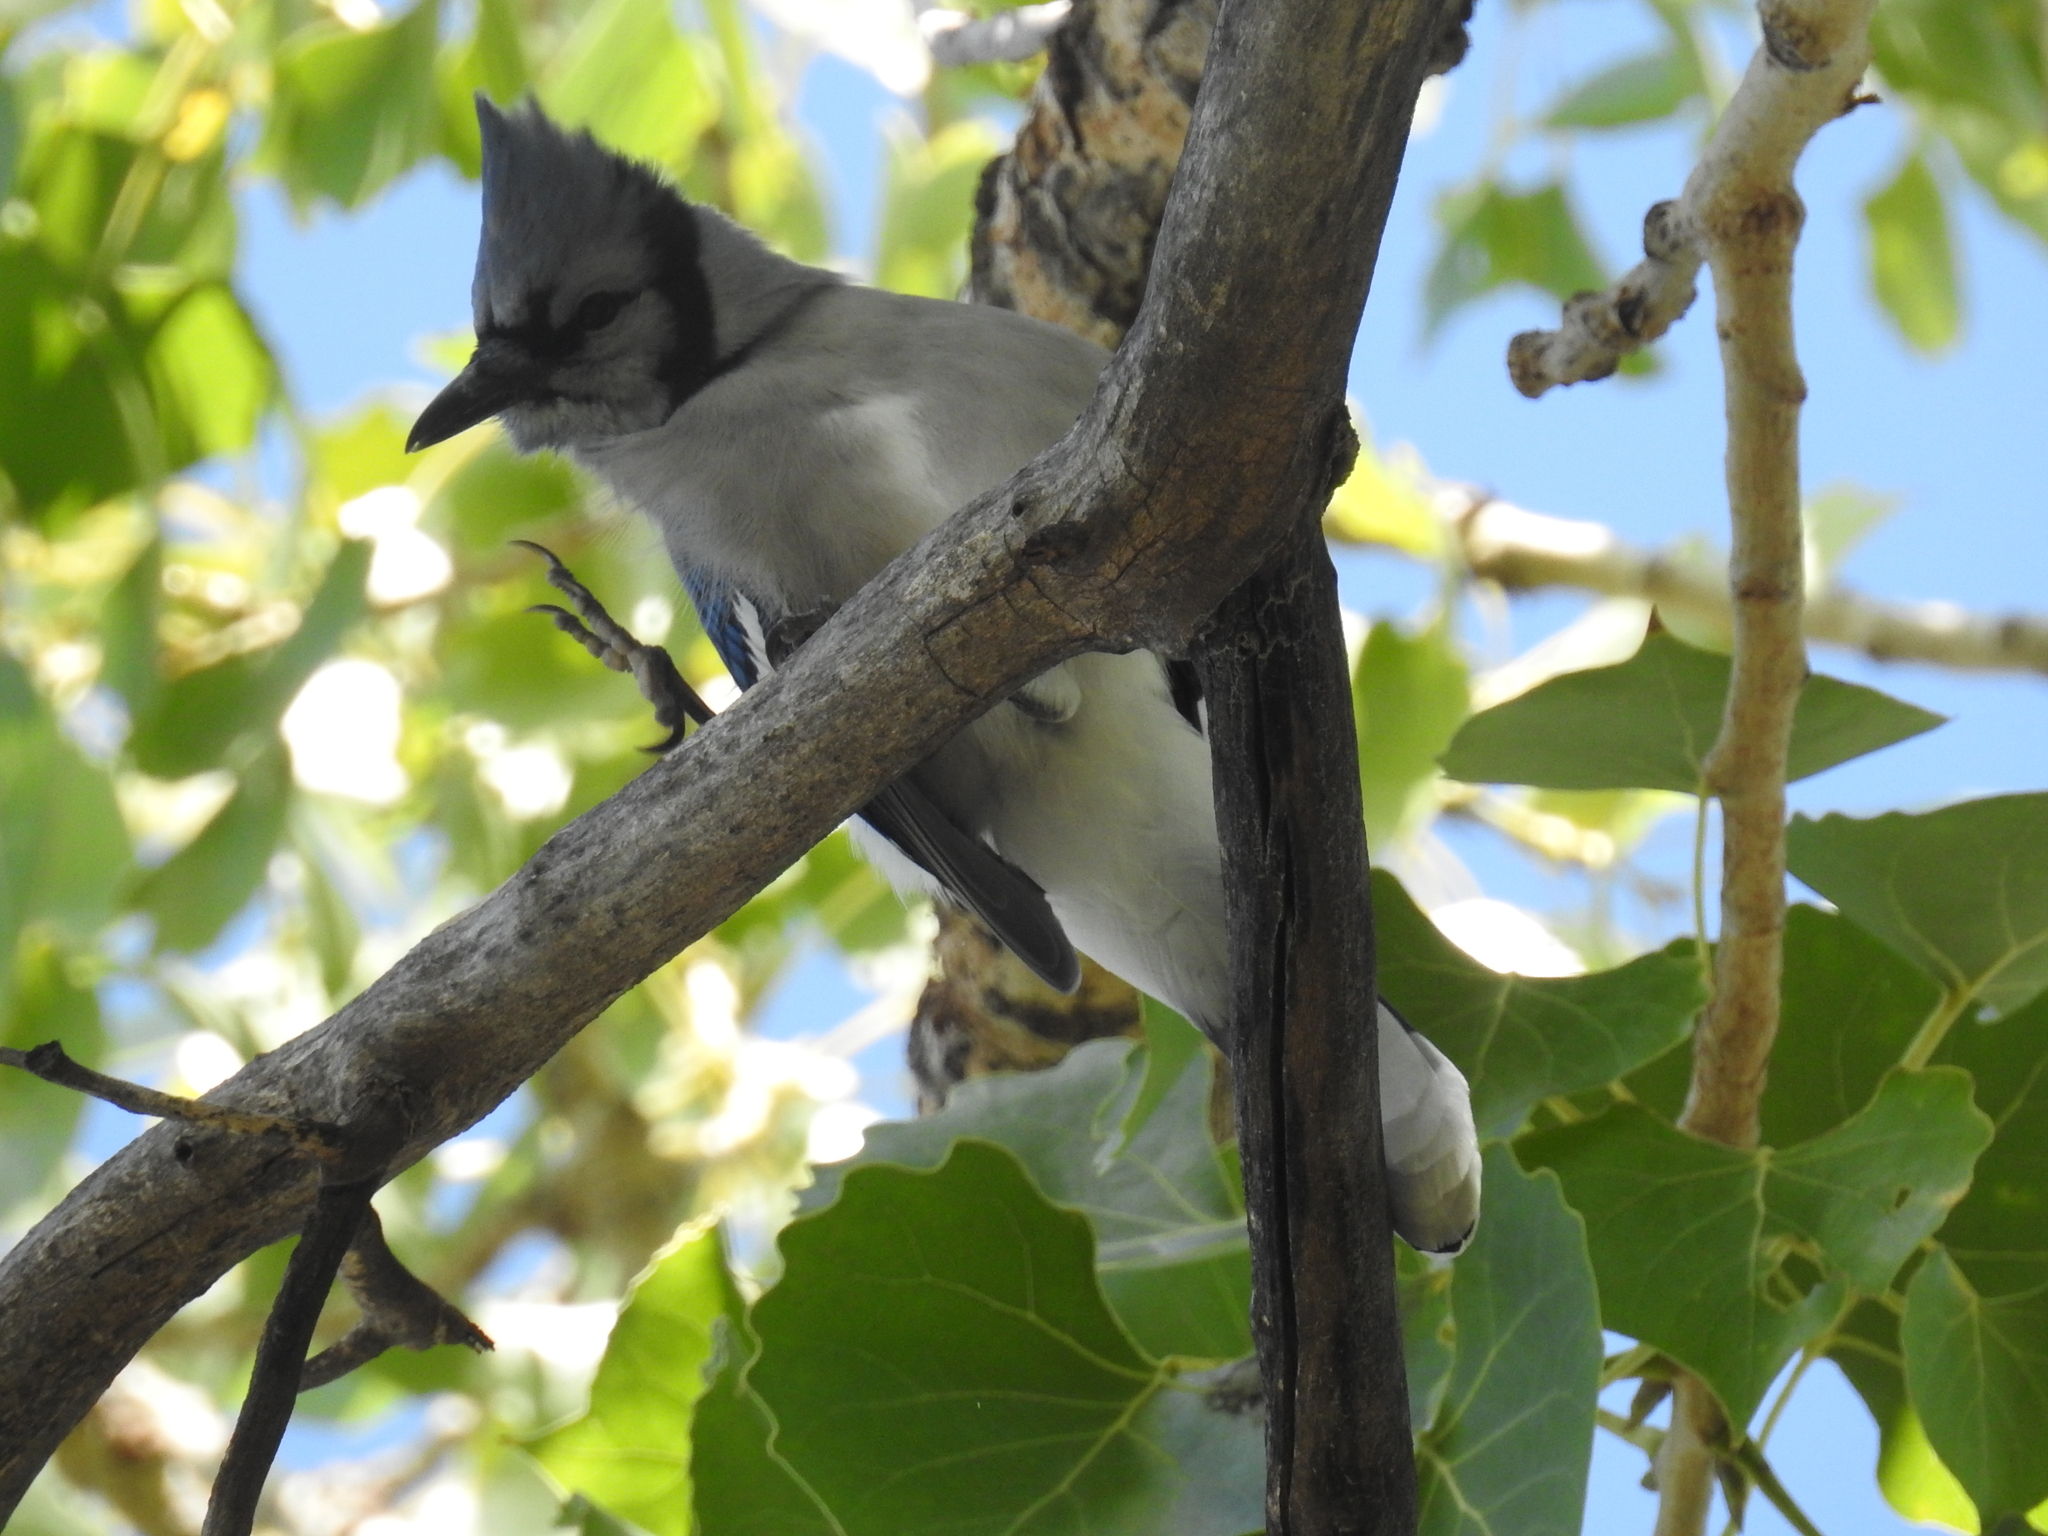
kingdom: Animalia
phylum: Chordata
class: Aves
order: Passeriformes
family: Corvidae
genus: Cyanocitta
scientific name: Cyanocitta cristata
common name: Blue jay
